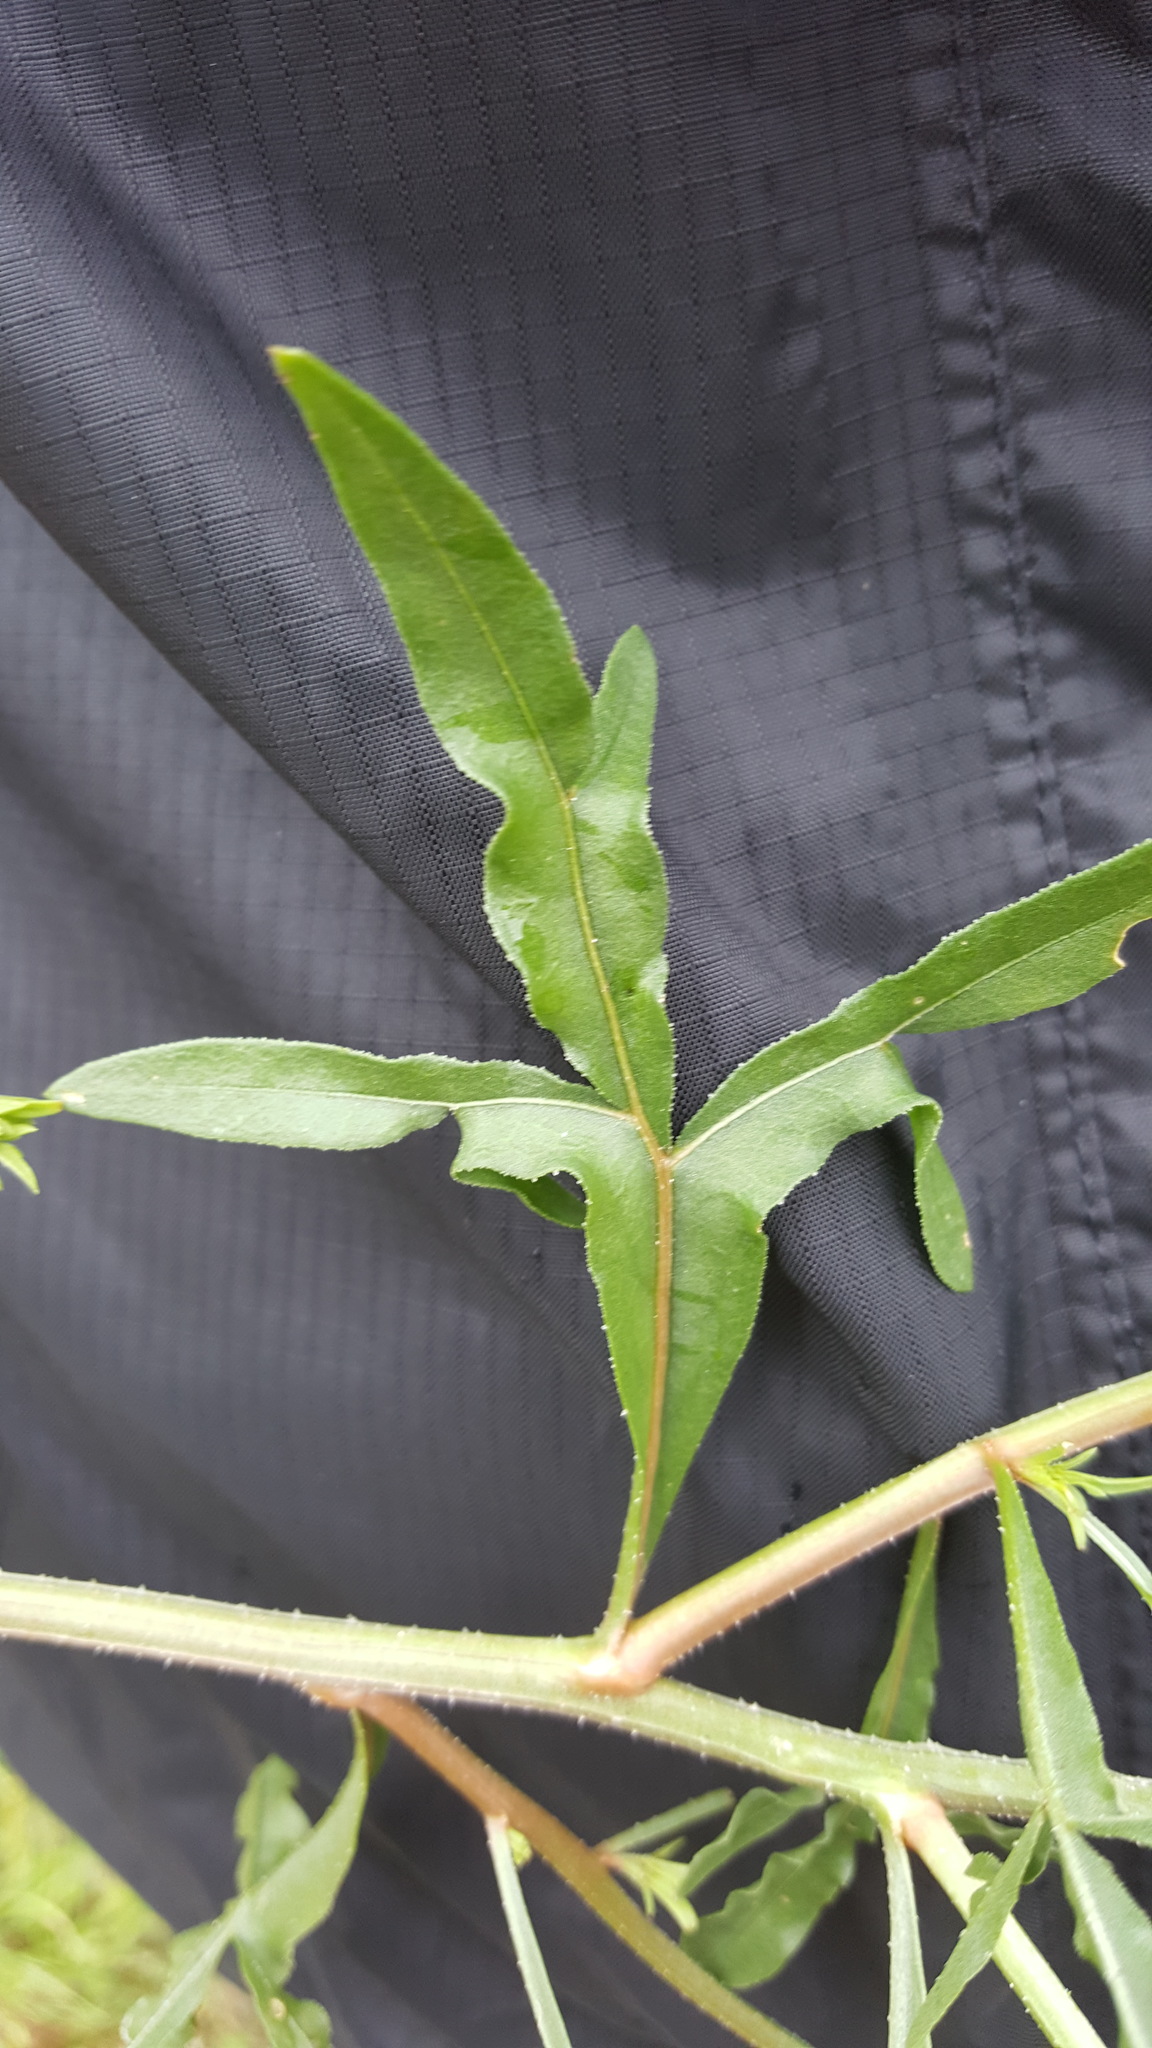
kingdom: Plantae
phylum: Tracheophyta
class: Magnoliopsida
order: Brassicales
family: Resedaceae
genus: Reseda
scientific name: Reseda lutea
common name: Wild mignonette
